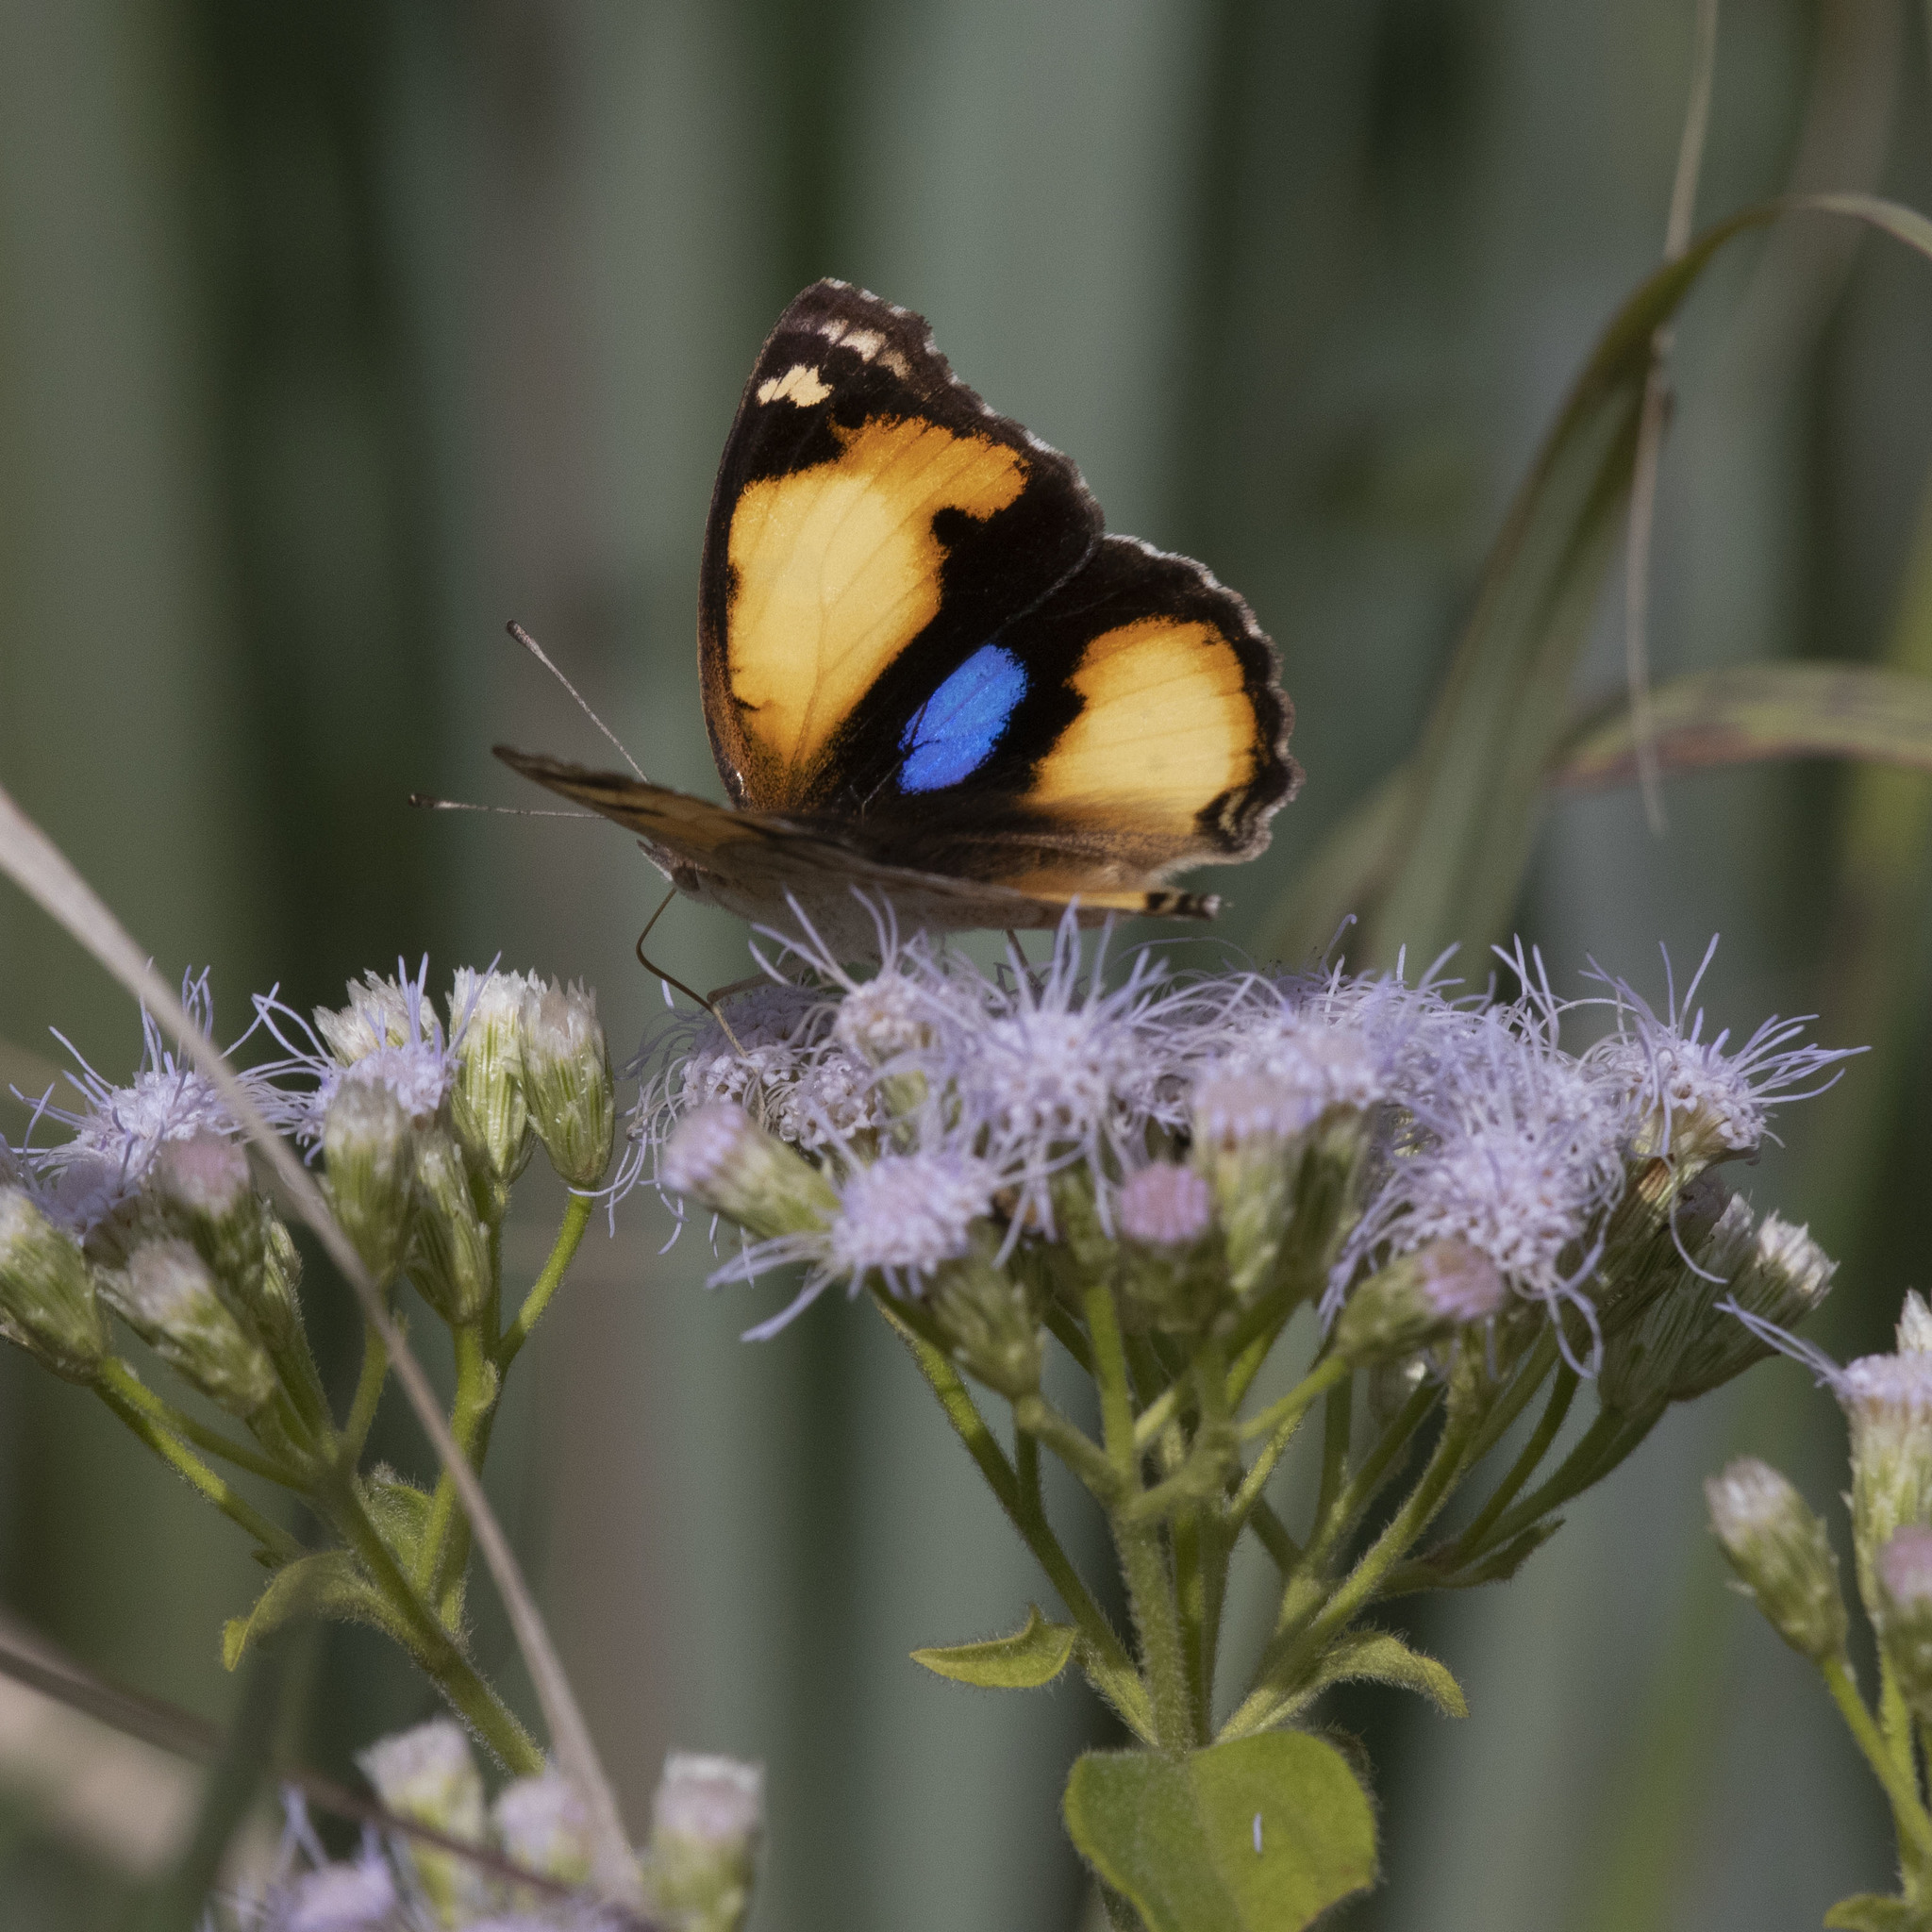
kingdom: Animalia
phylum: Arthropoda
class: Insecta
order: Lepidoptera
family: Nymphalidae
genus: Junonia
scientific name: Junonia hierta
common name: Yellow pansy
